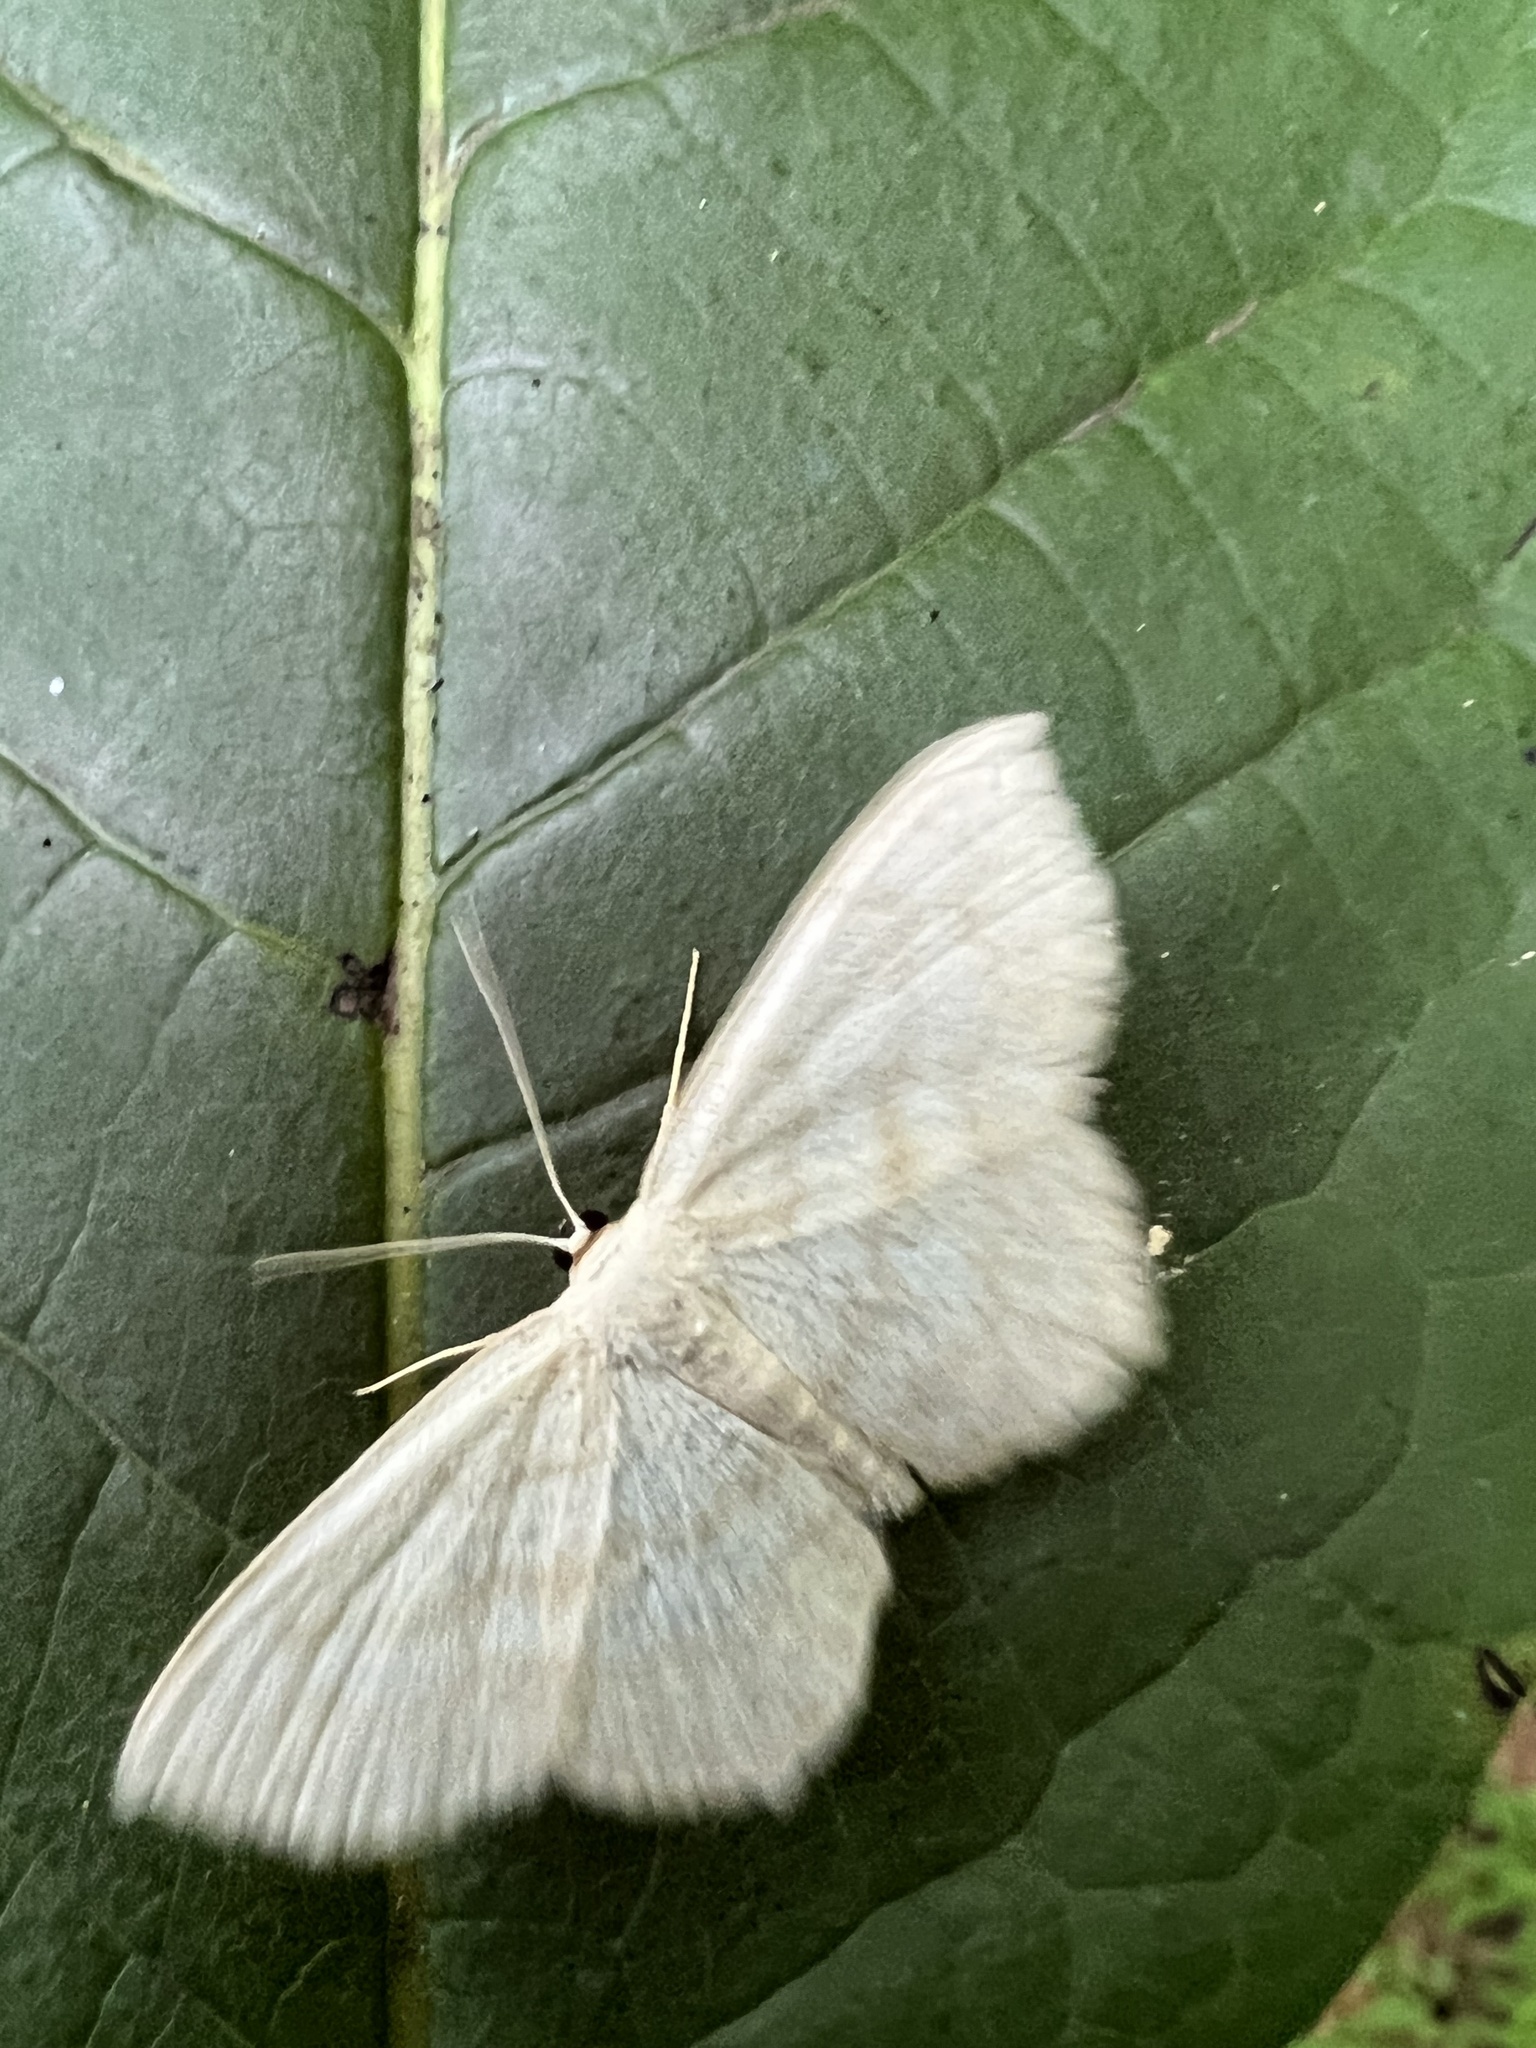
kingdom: Animalia
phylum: Arthropoda
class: Insecta
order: Lepidoptera
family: Geometridae
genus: Scopula
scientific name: Scopula limboundata
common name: Large lace border
